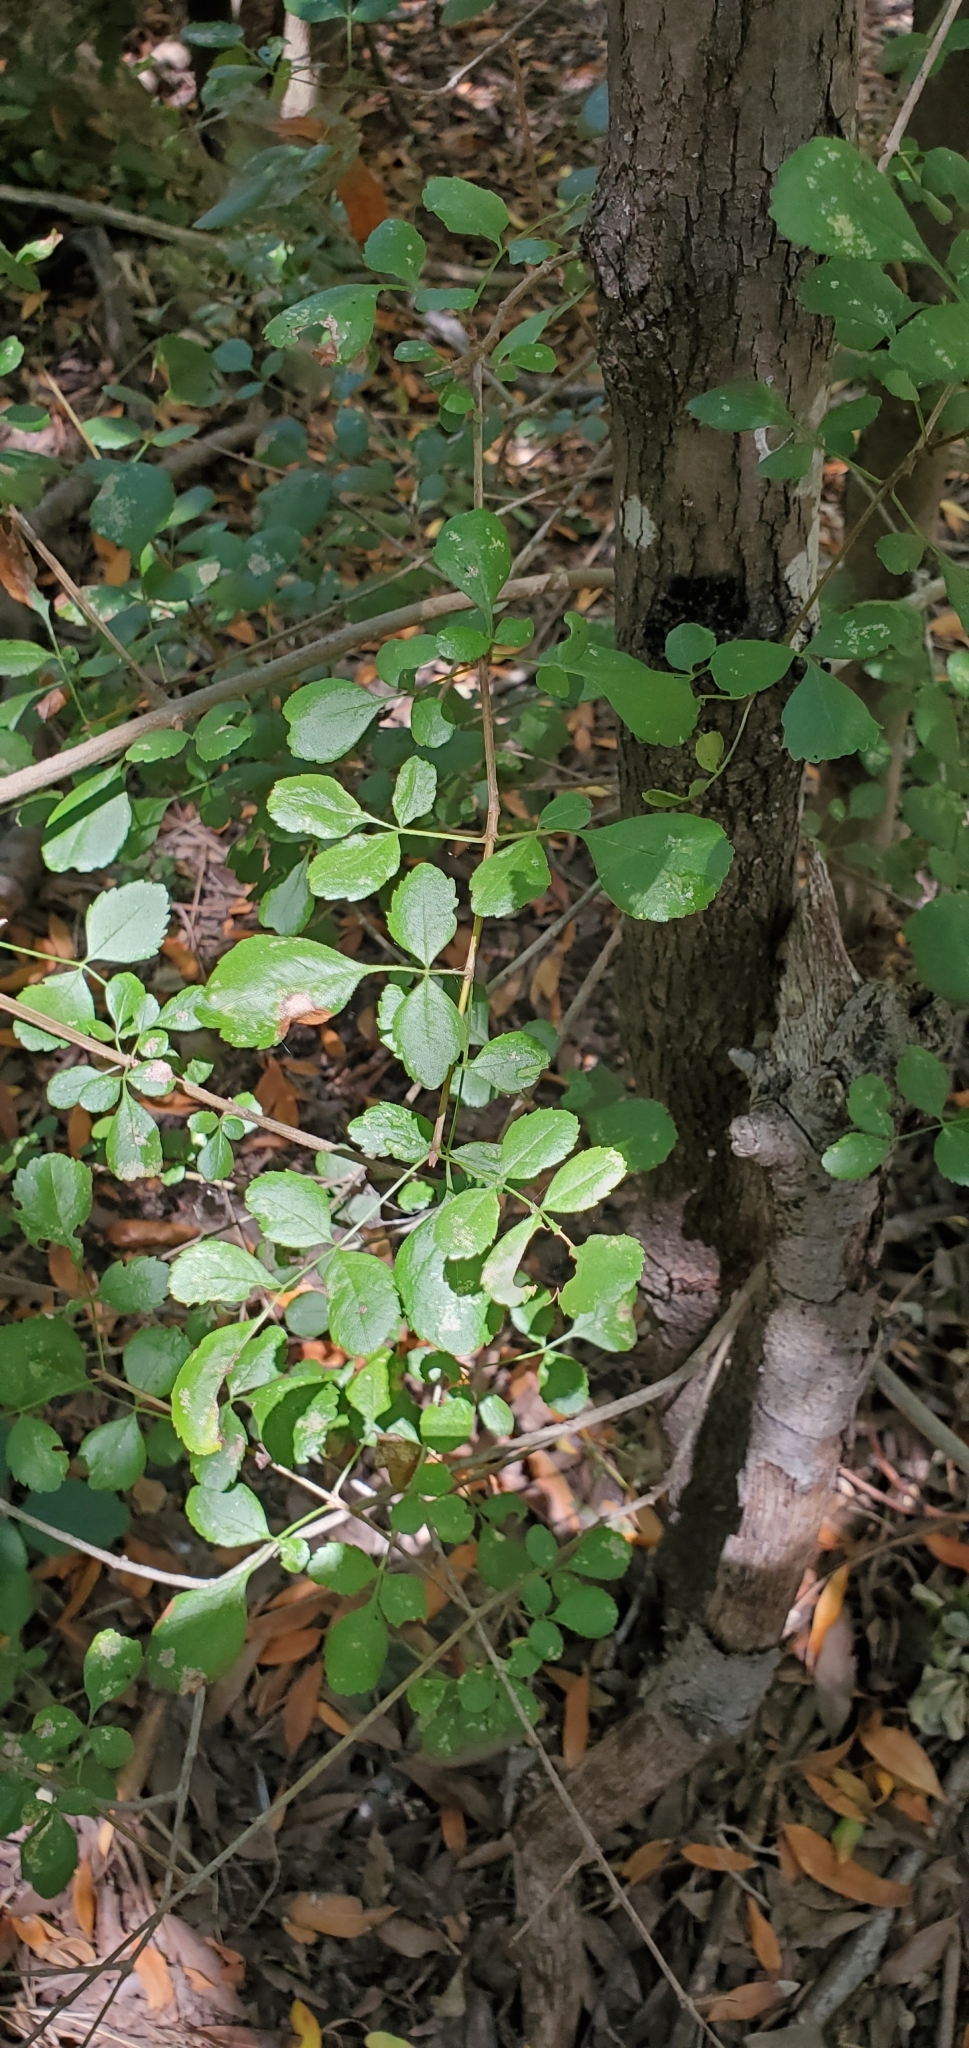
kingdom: Plantae
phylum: Tracheophyta
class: Magnoliopsida
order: Lamiales
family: Oleaceae
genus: Fraxinus
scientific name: Fraxinus dipetala
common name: California ash
